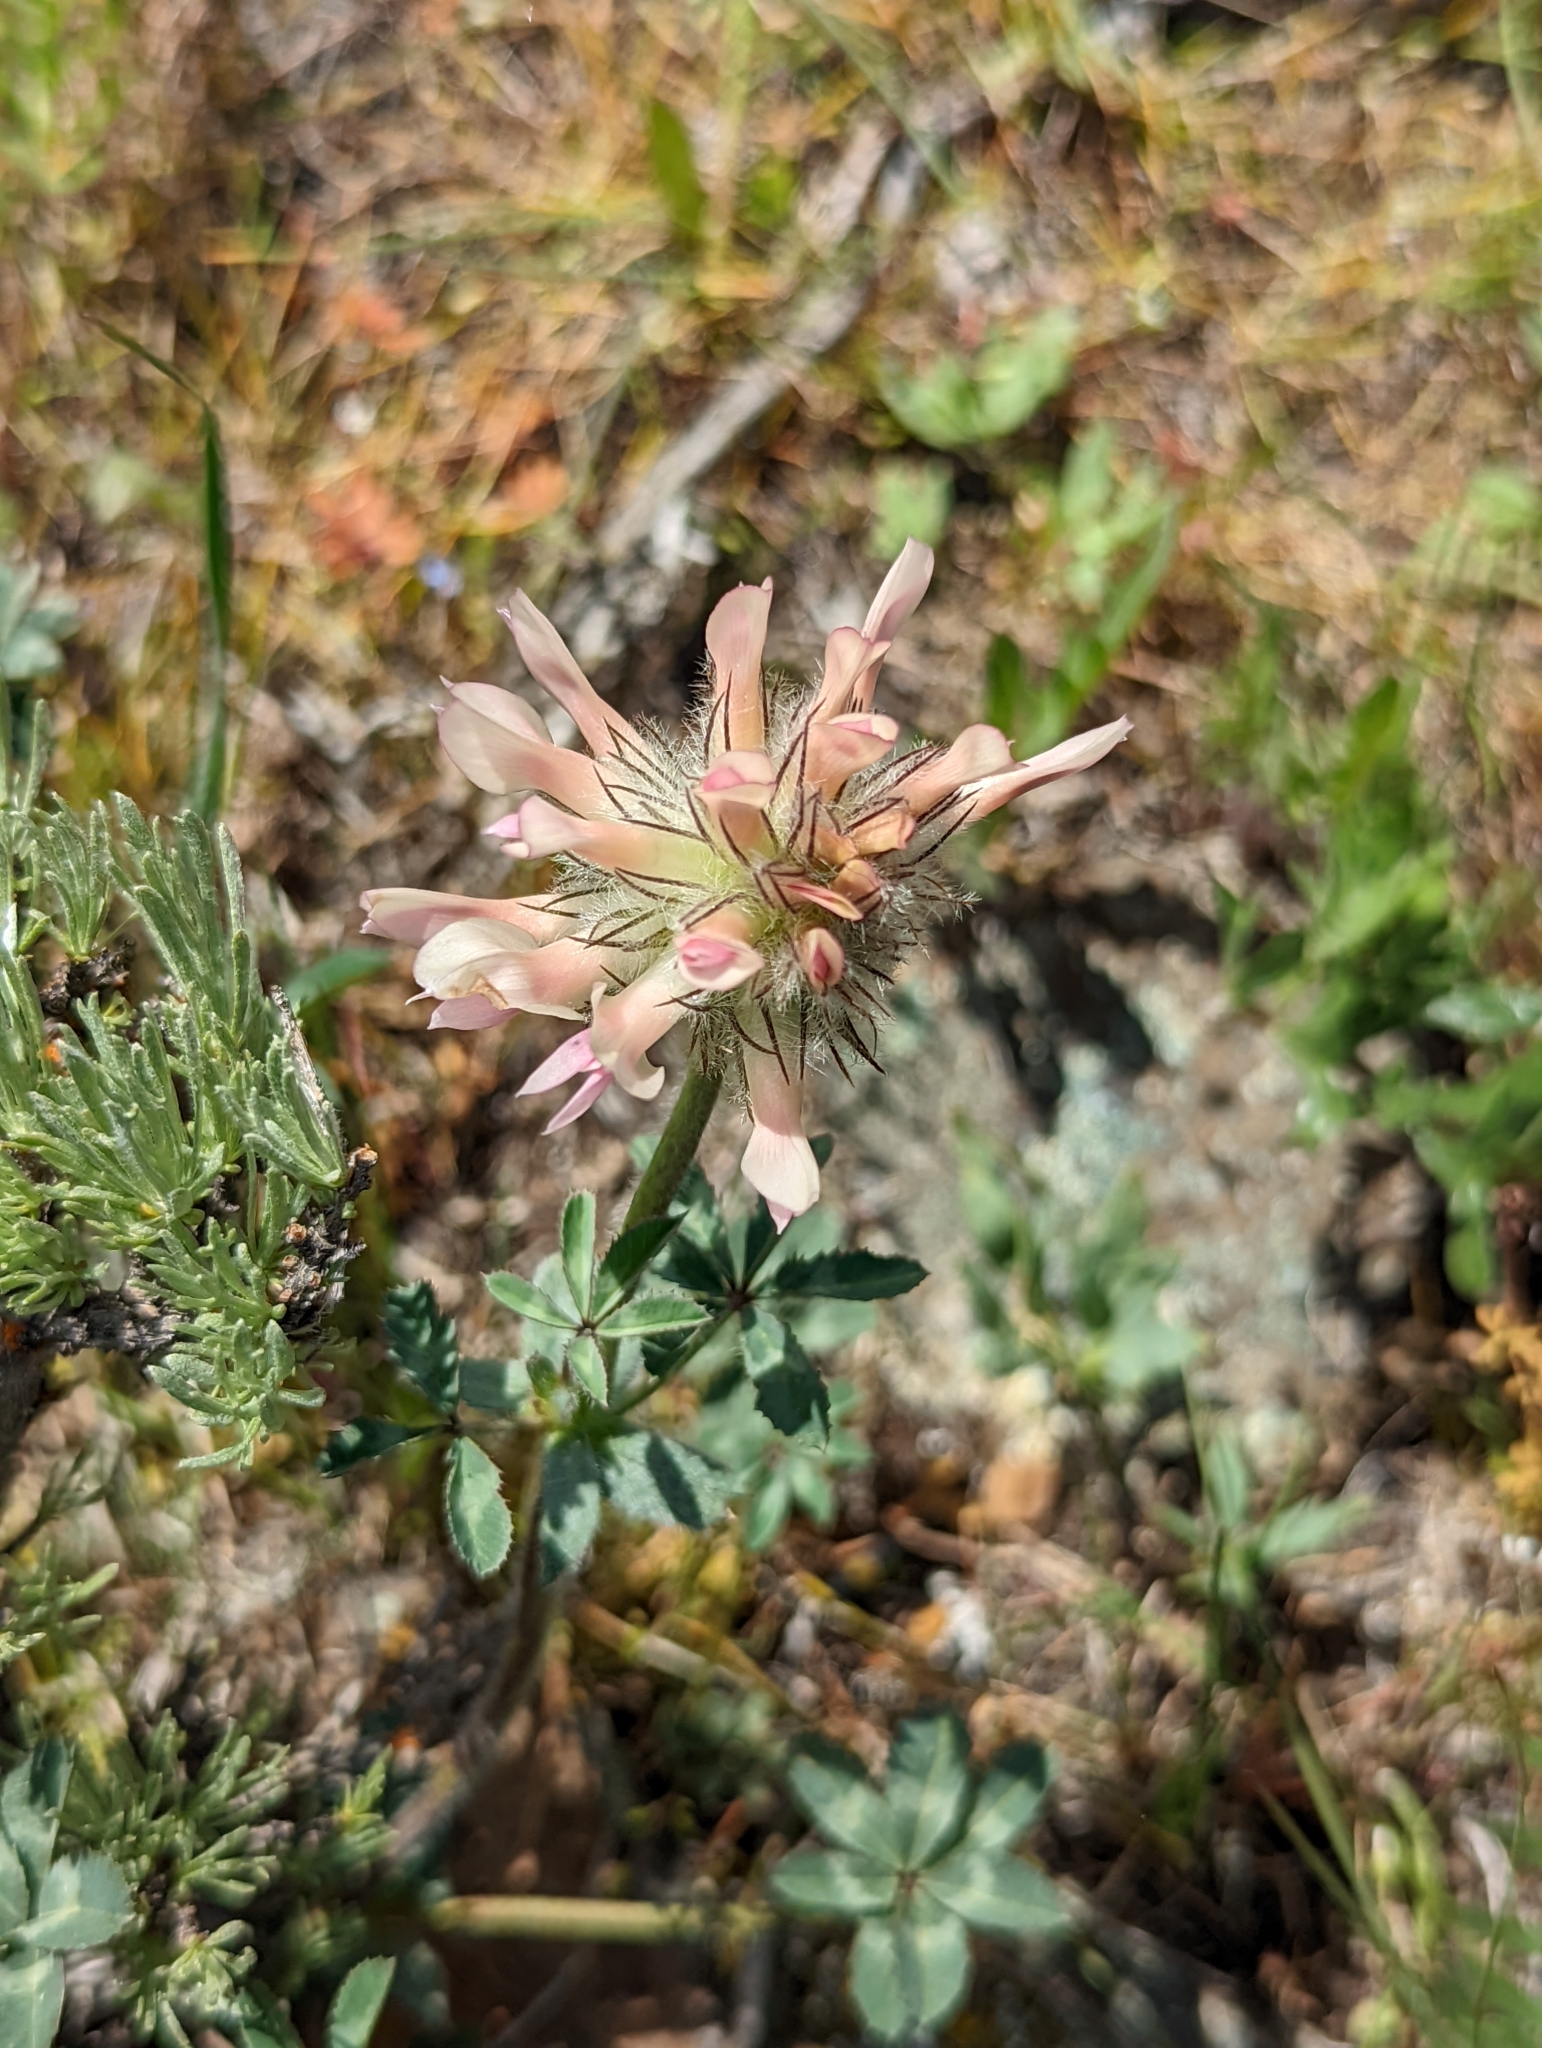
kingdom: Plantae
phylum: Tracheophyta
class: Magnoliopsida
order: Fabales
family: Fabaceae
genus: Trifolium
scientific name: Trifolium macrocephalum
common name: Large-head clover
